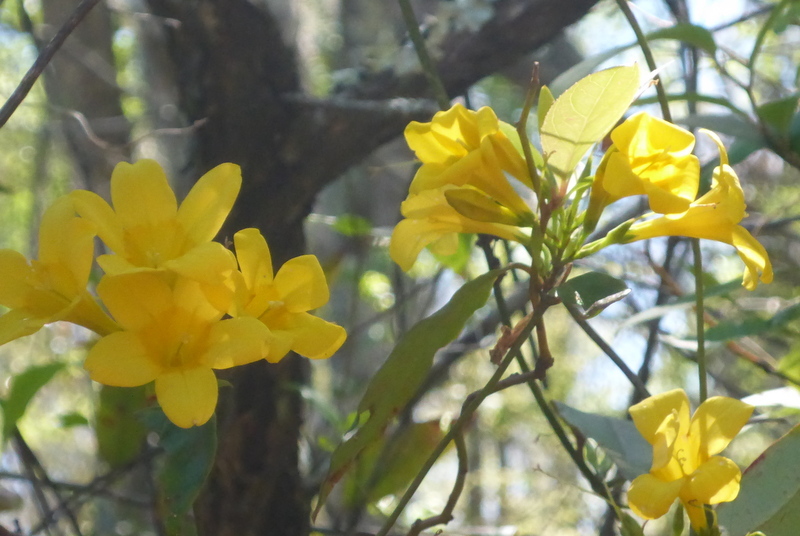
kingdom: Plantae
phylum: Tracheophyta
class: Magnoliopsida
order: Gentianales
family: Gelsemiaceae
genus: Gelsemium
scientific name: Gelsemium rankinii
